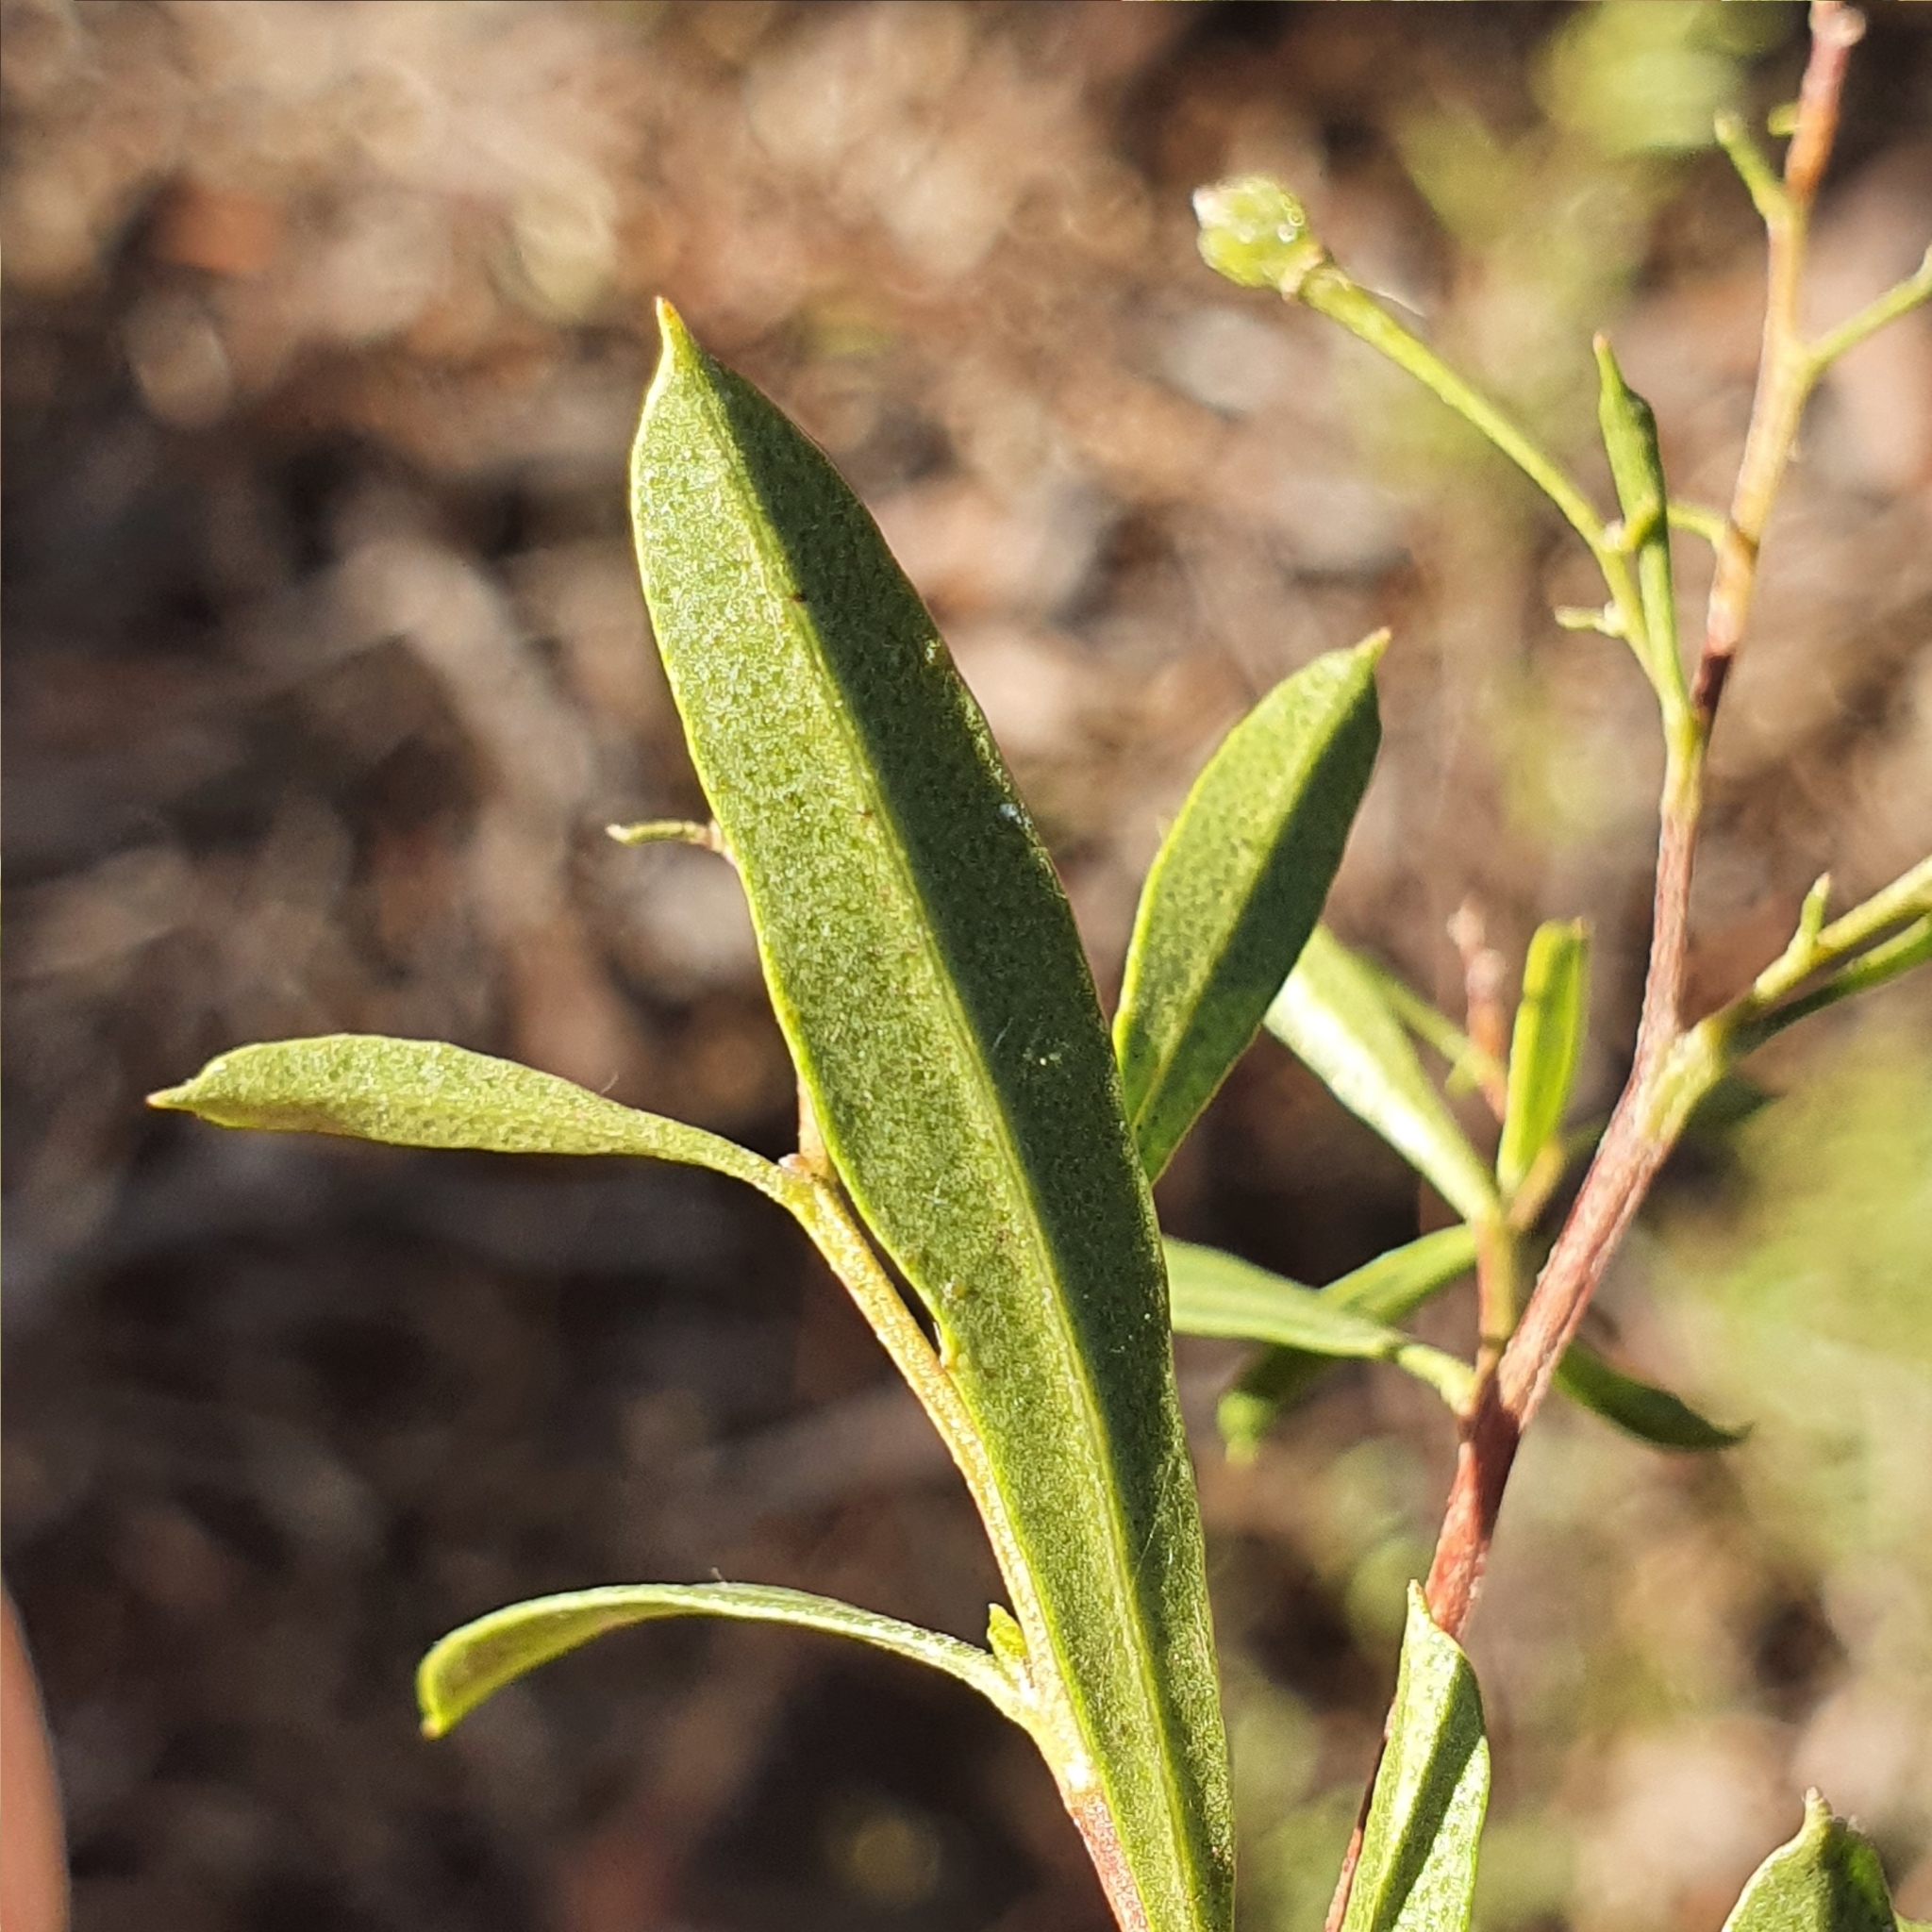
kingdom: Plantae
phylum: Tracheophyta
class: Magnoliopsida
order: Sapindales
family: Sapindaceae
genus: Dodonaea
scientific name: Dodonaea viscosa
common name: Hopbush
